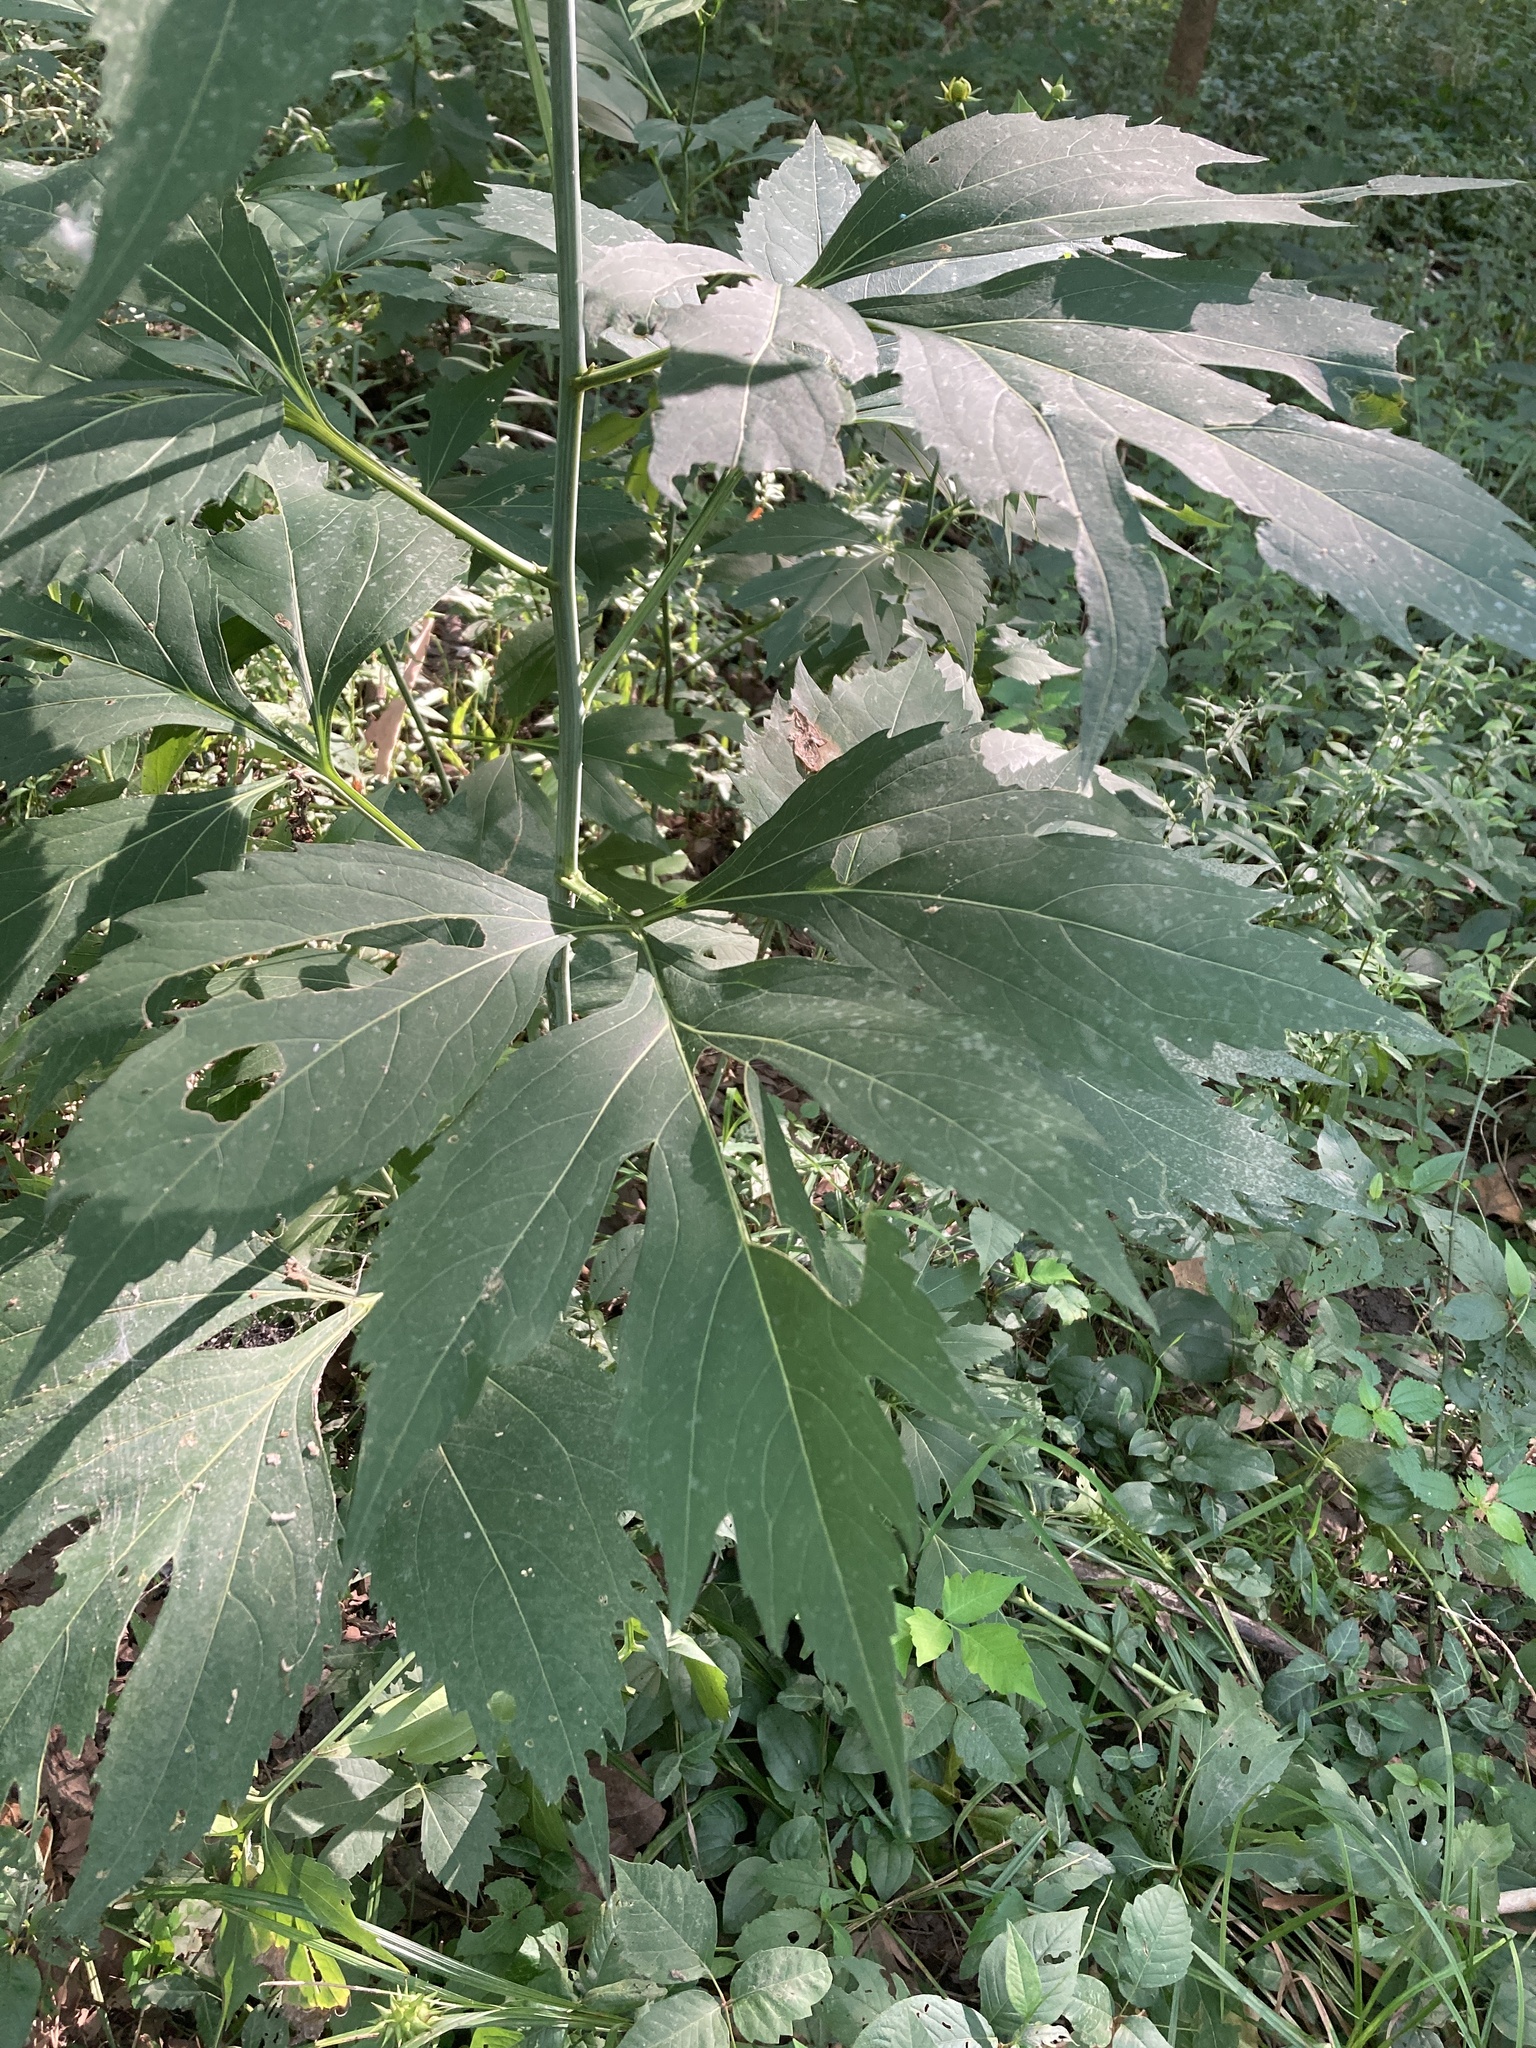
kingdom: Plantae
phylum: Tracheophyta
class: Magnoliopsida
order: Asterales
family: Asteraceae
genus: Rudbeckia
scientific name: Rudbeckia laciniata
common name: Coneflower
